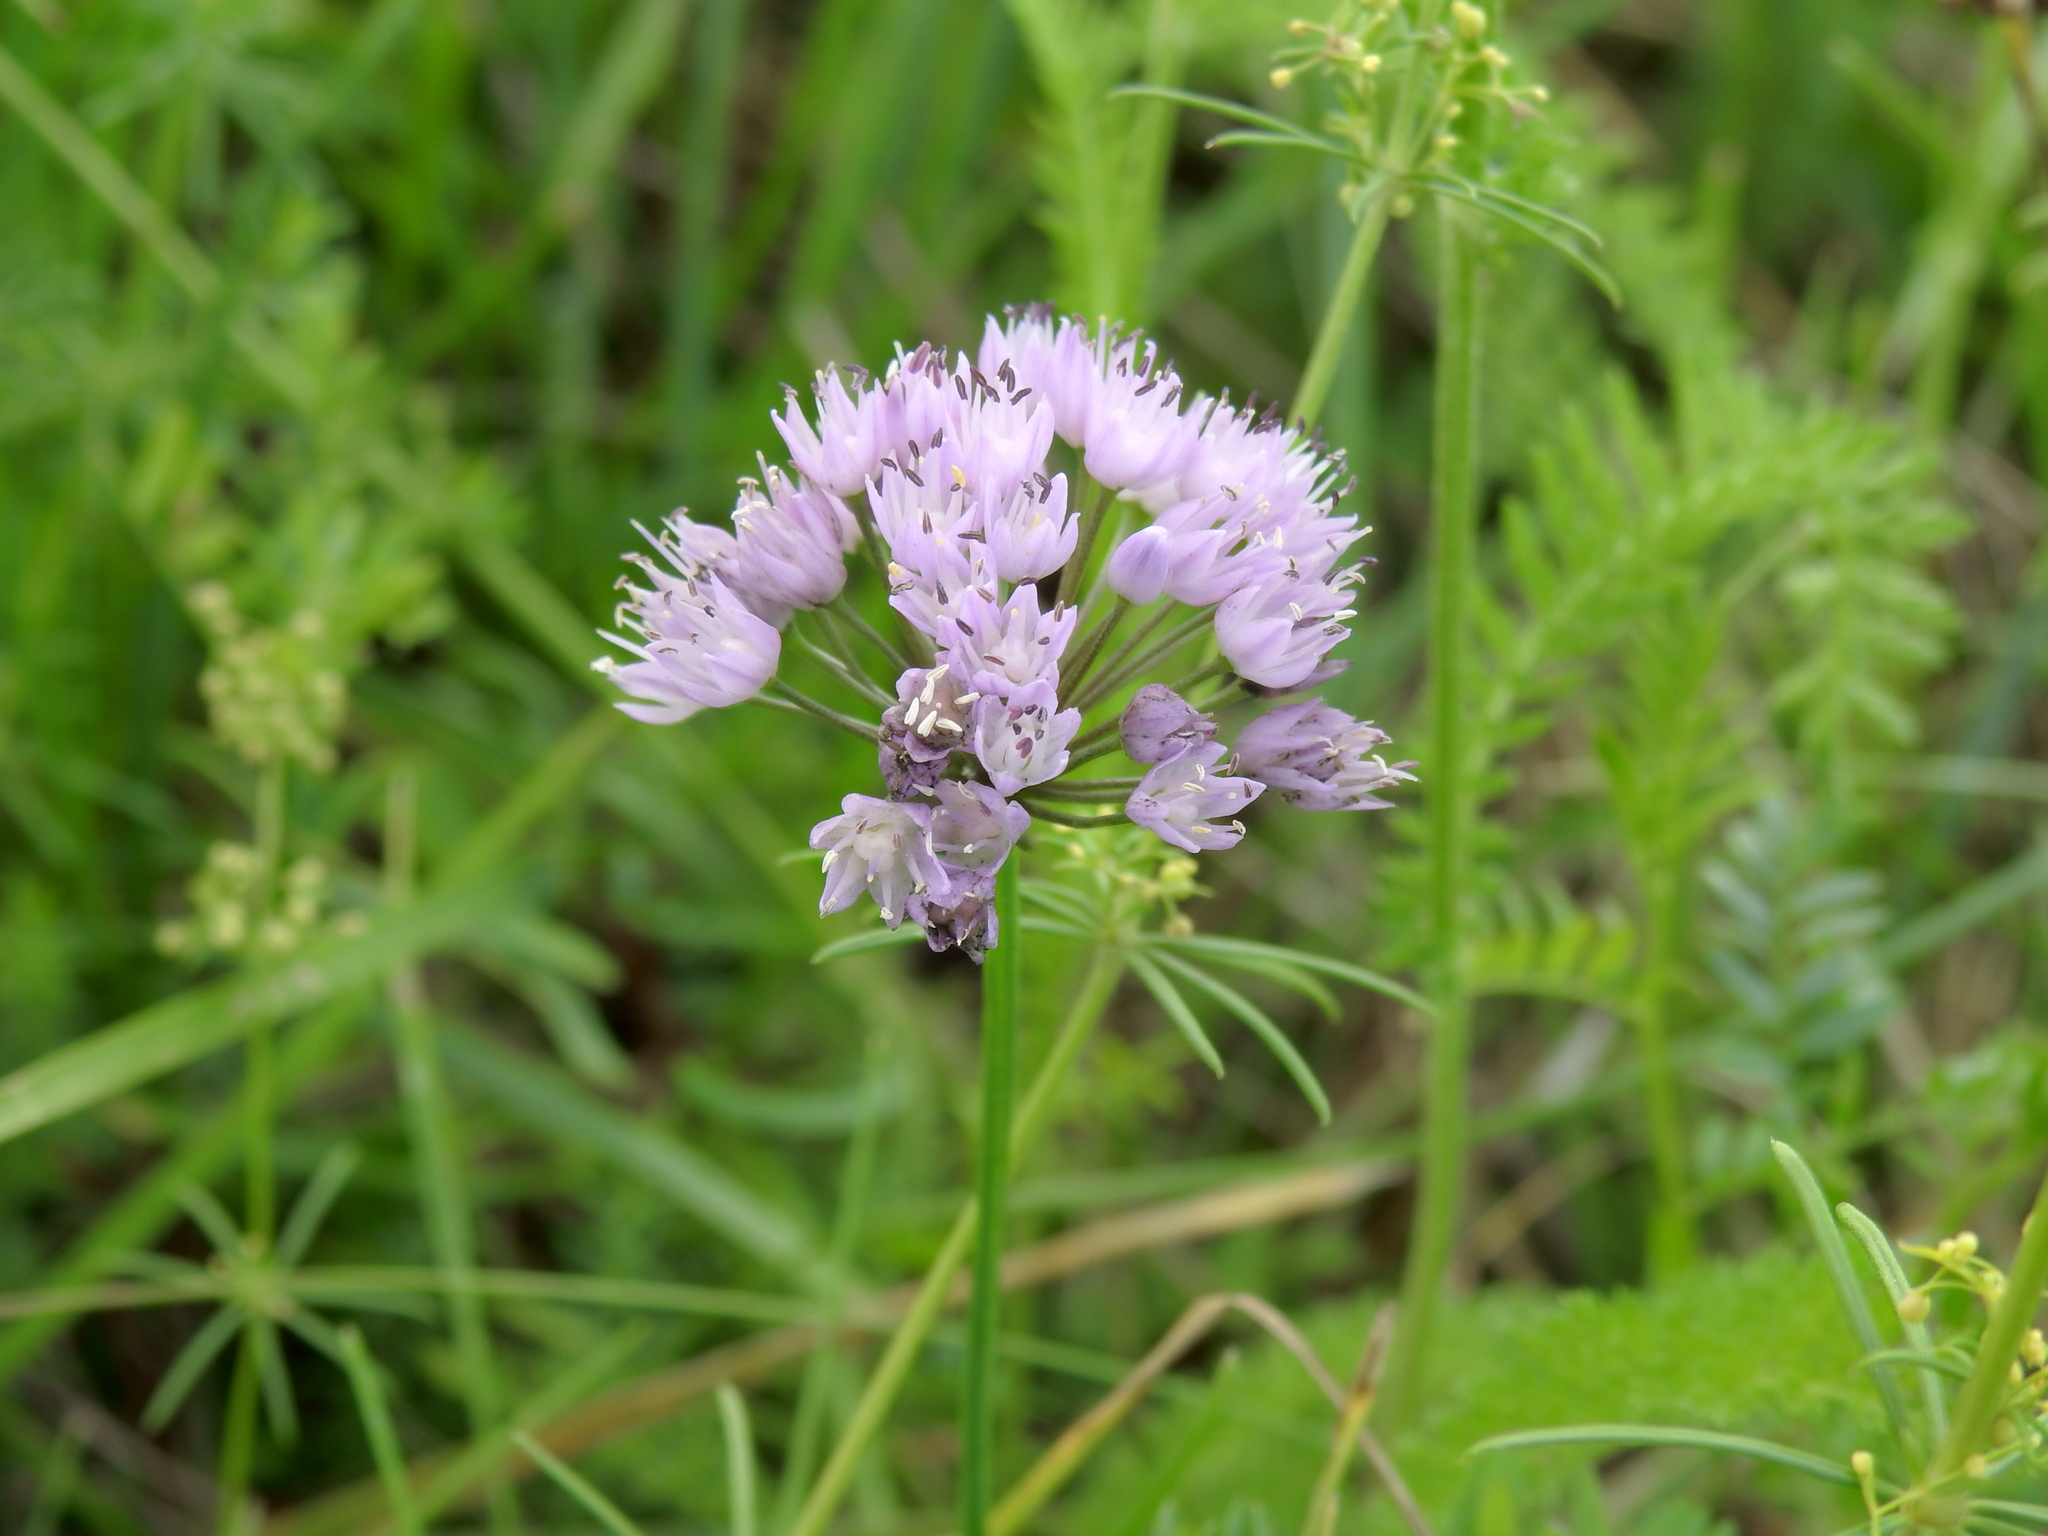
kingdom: Plantae
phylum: Tracheophyta
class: Liliopsida
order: Asparagales
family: Amaryllidaceae
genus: Allium
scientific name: Allium angulosum
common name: Mouse garlic
